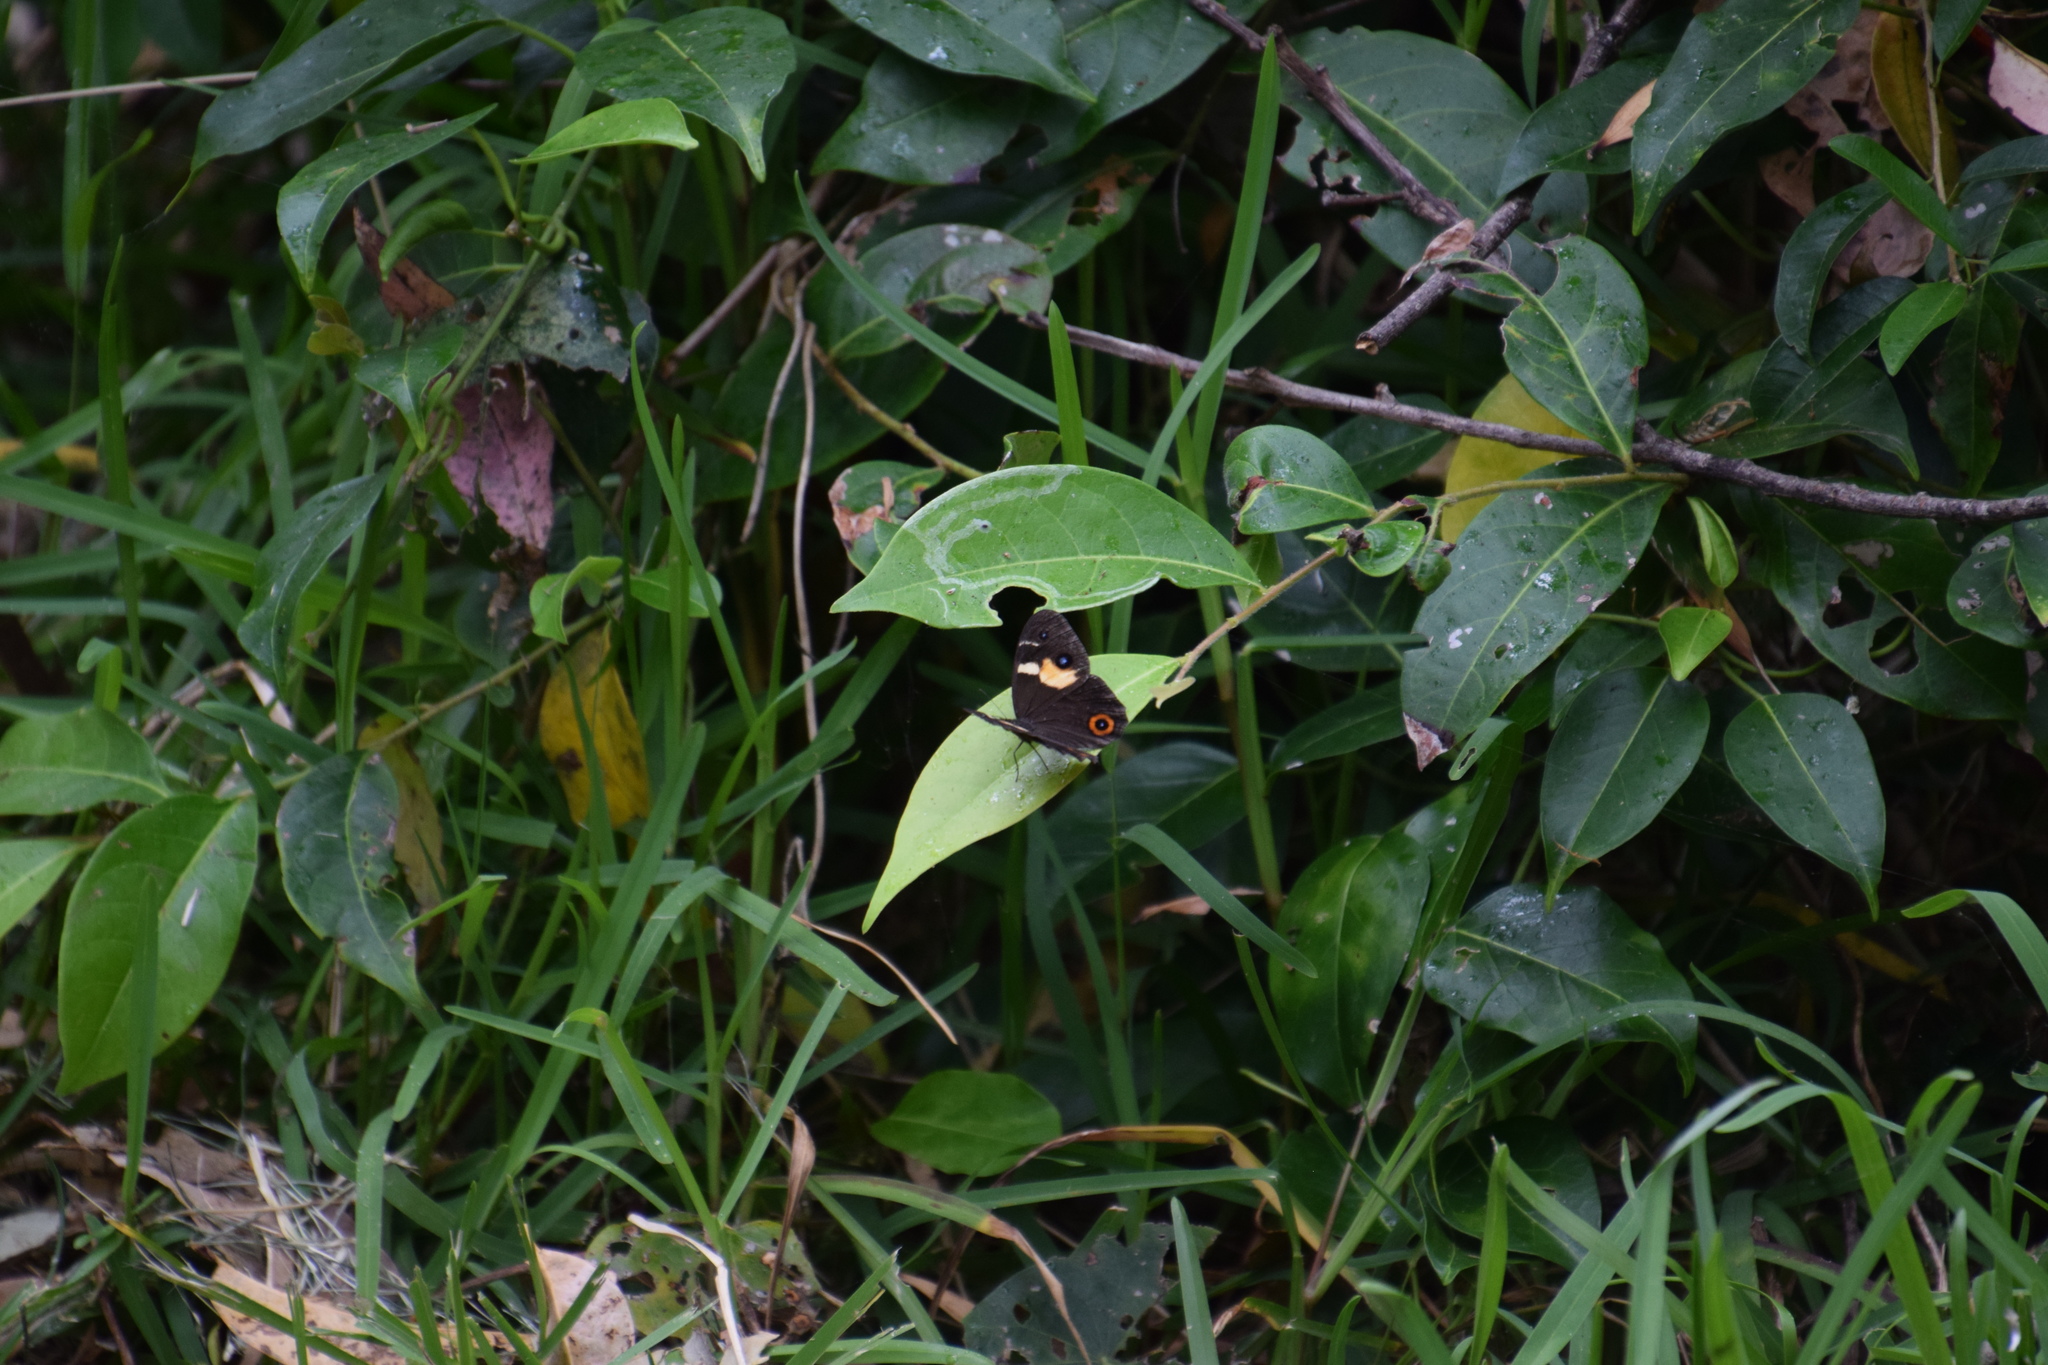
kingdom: Animalia
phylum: Arthropoda
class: Insecta
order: Lepidoptera
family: Nymphalidae
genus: Tisiphone
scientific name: Tisiphone abeona
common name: Swordgrass brown
